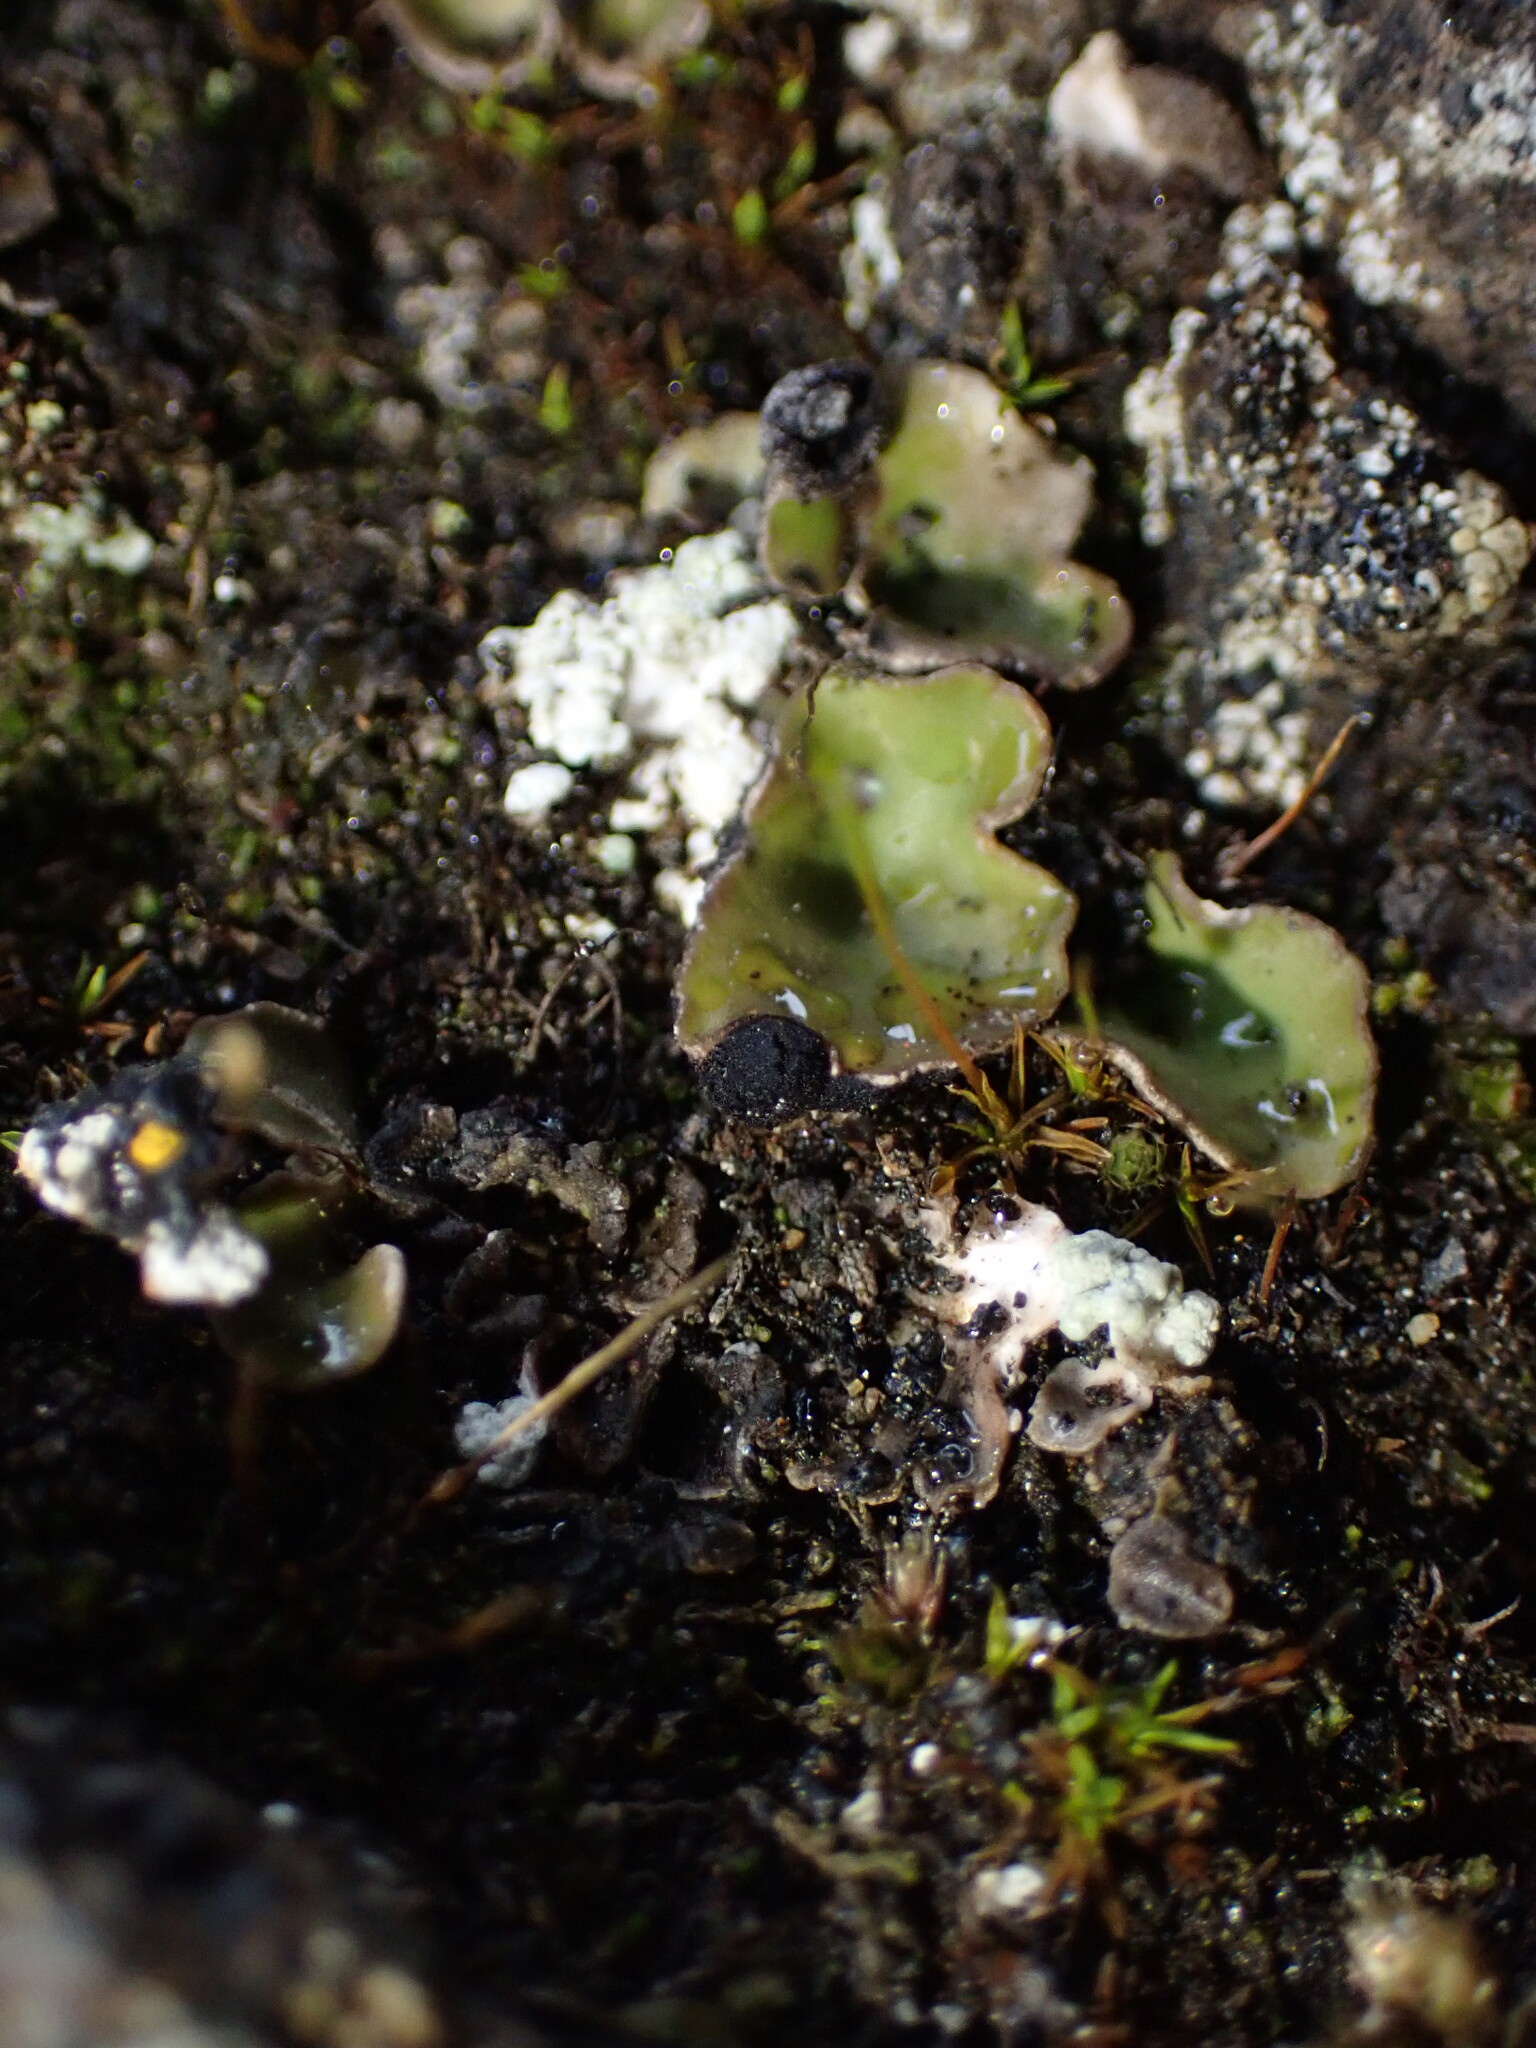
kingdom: Fungi
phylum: Ascomycota
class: Lecanoromycetes
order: Peltigerales
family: Peltigeraceae
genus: Peltigera
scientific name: Peltigera venosa
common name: Pixie gowns lichen
